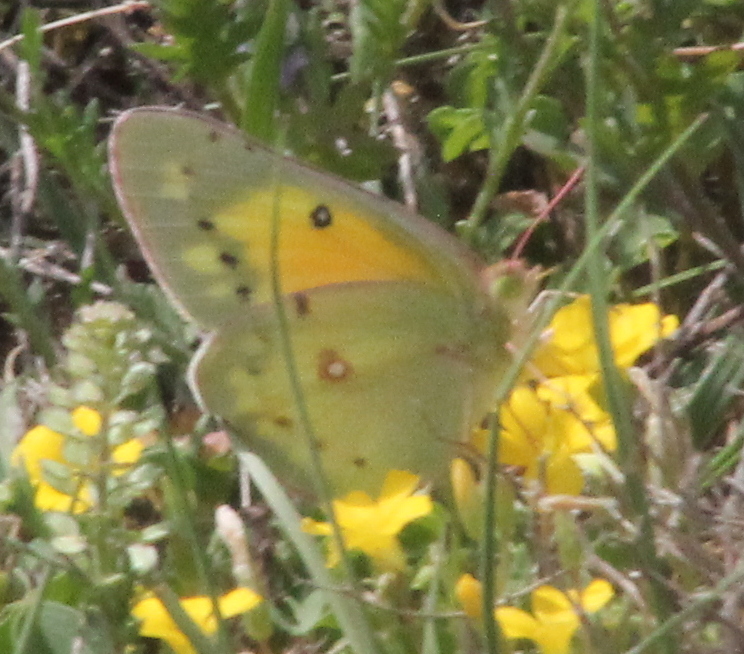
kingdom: Animalia
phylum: Arthropoda
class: Insecta
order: Lepidoptera
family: Pieridae
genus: Colias
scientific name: Colias eurytheme
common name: Alfalfa butterfly
